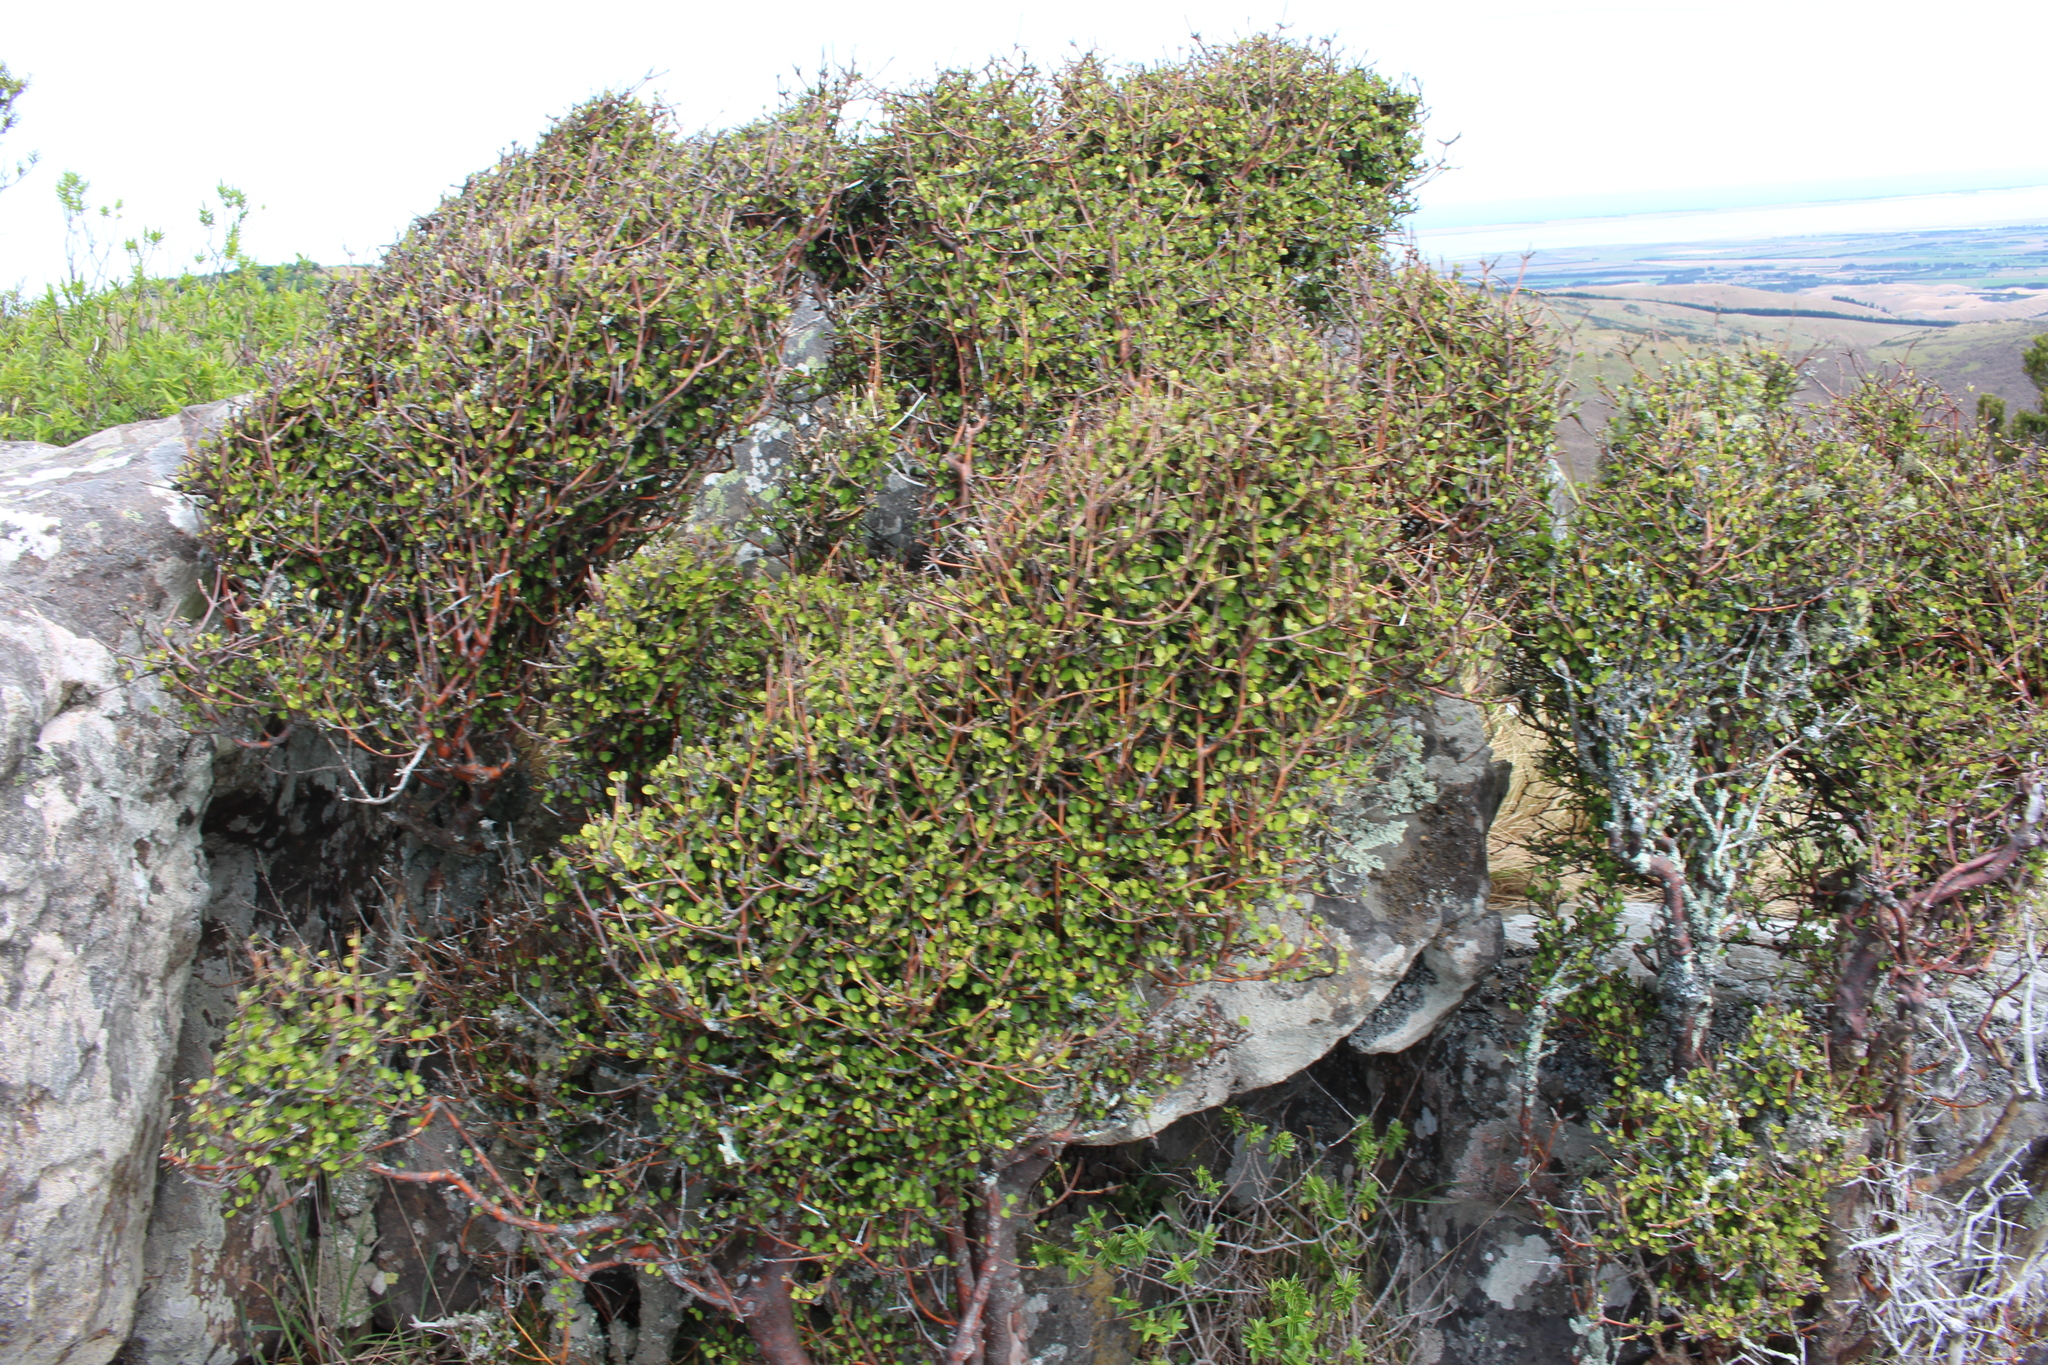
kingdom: Plantae
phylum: Tracheophyta
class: Magnoliopsida
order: Sapindales
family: Rutaceae
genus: Melicope
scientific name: Melicope simplex
